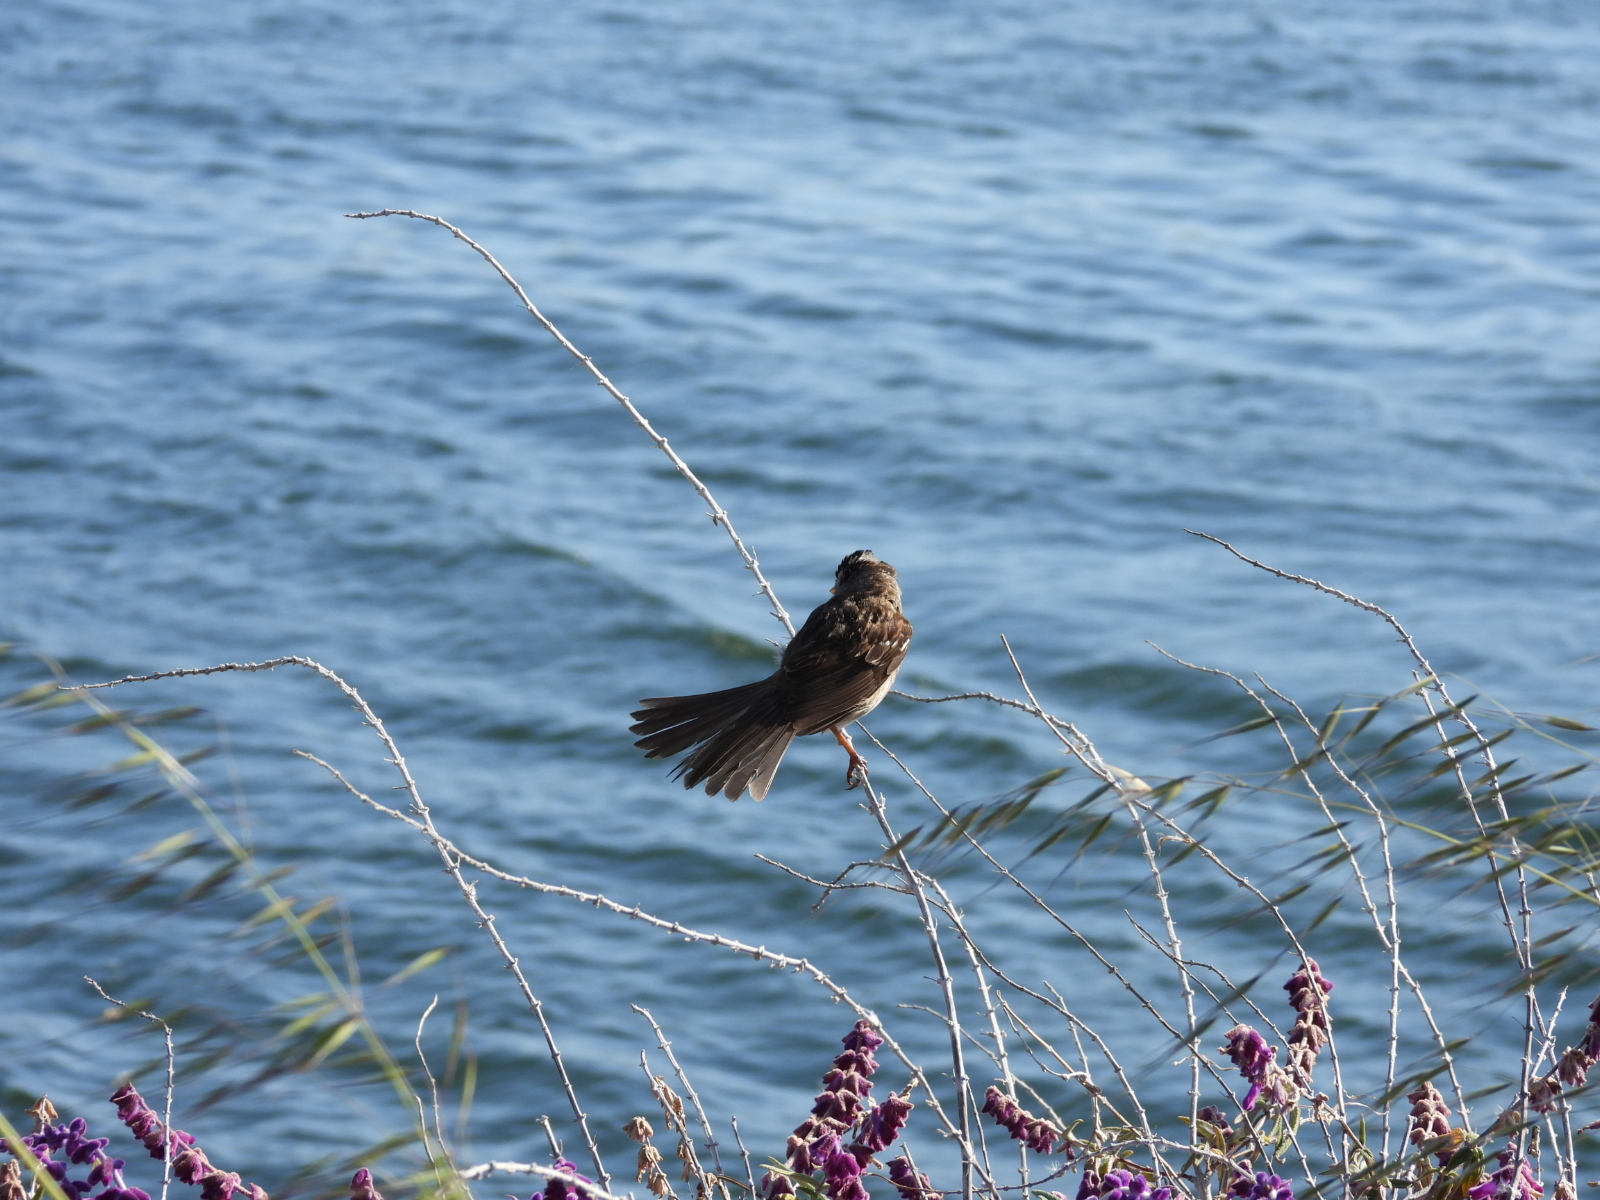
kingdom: Animalia
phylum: Chordata
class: Aves
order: Passeriformes
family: Passerellidae
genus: Zonotrichia
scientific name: Zonotrichia leucophrys
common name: White-crowned sparrow
